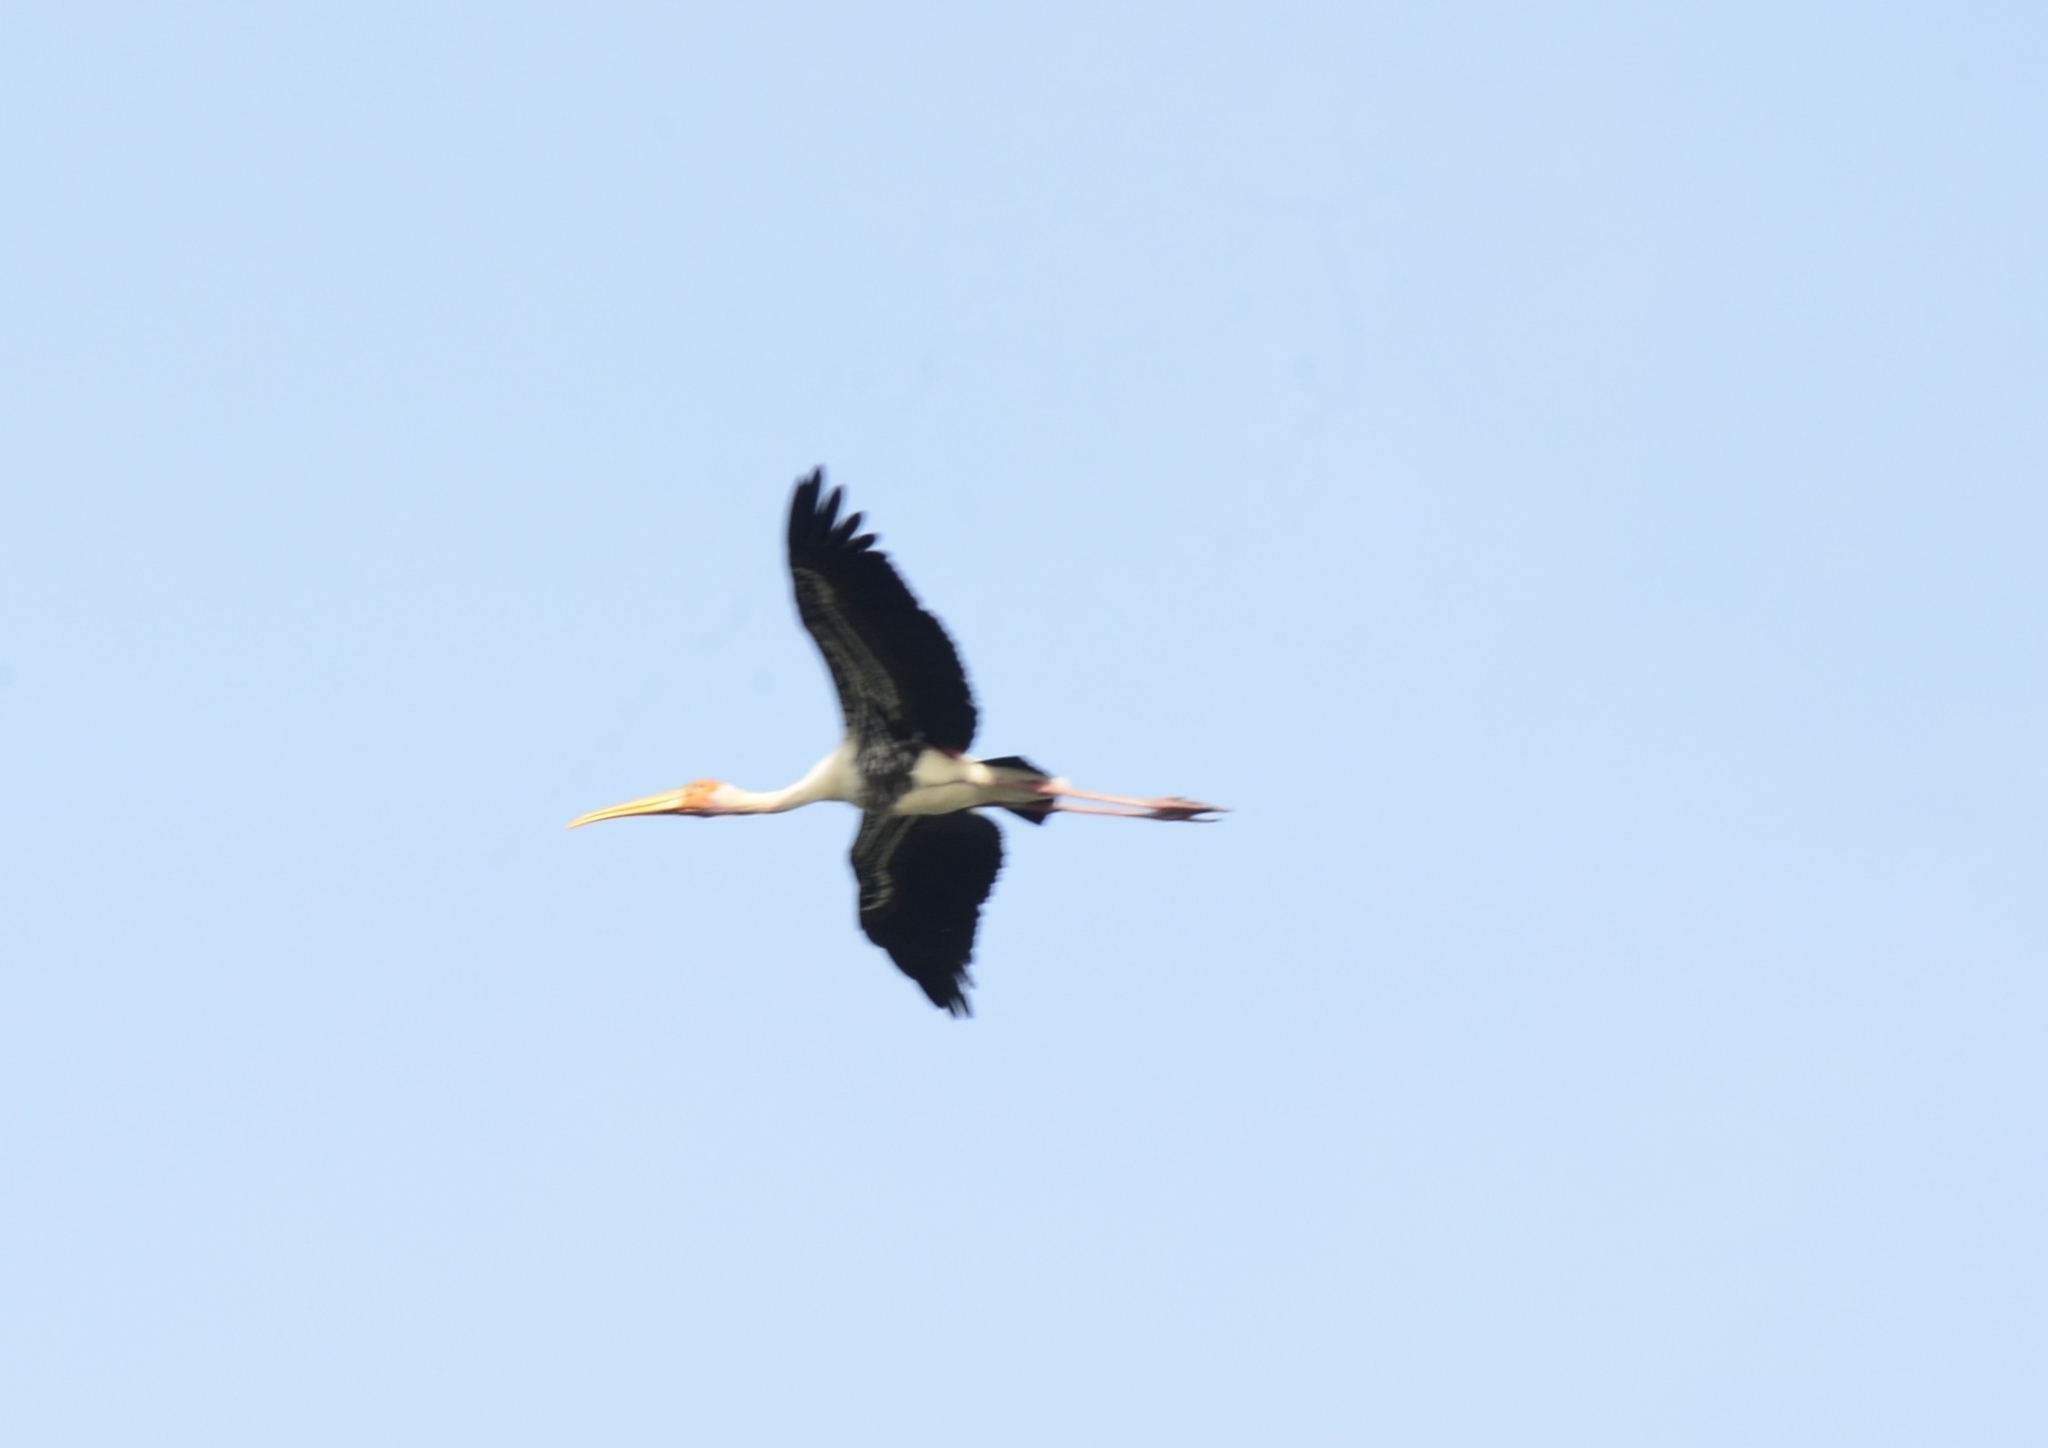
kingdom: Animalia
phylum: Chordata
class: Aves
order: Ciconiiformes
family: Ciconiidae
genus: Mycteria
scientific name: Mycteria leucocephala
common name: Painted stork
